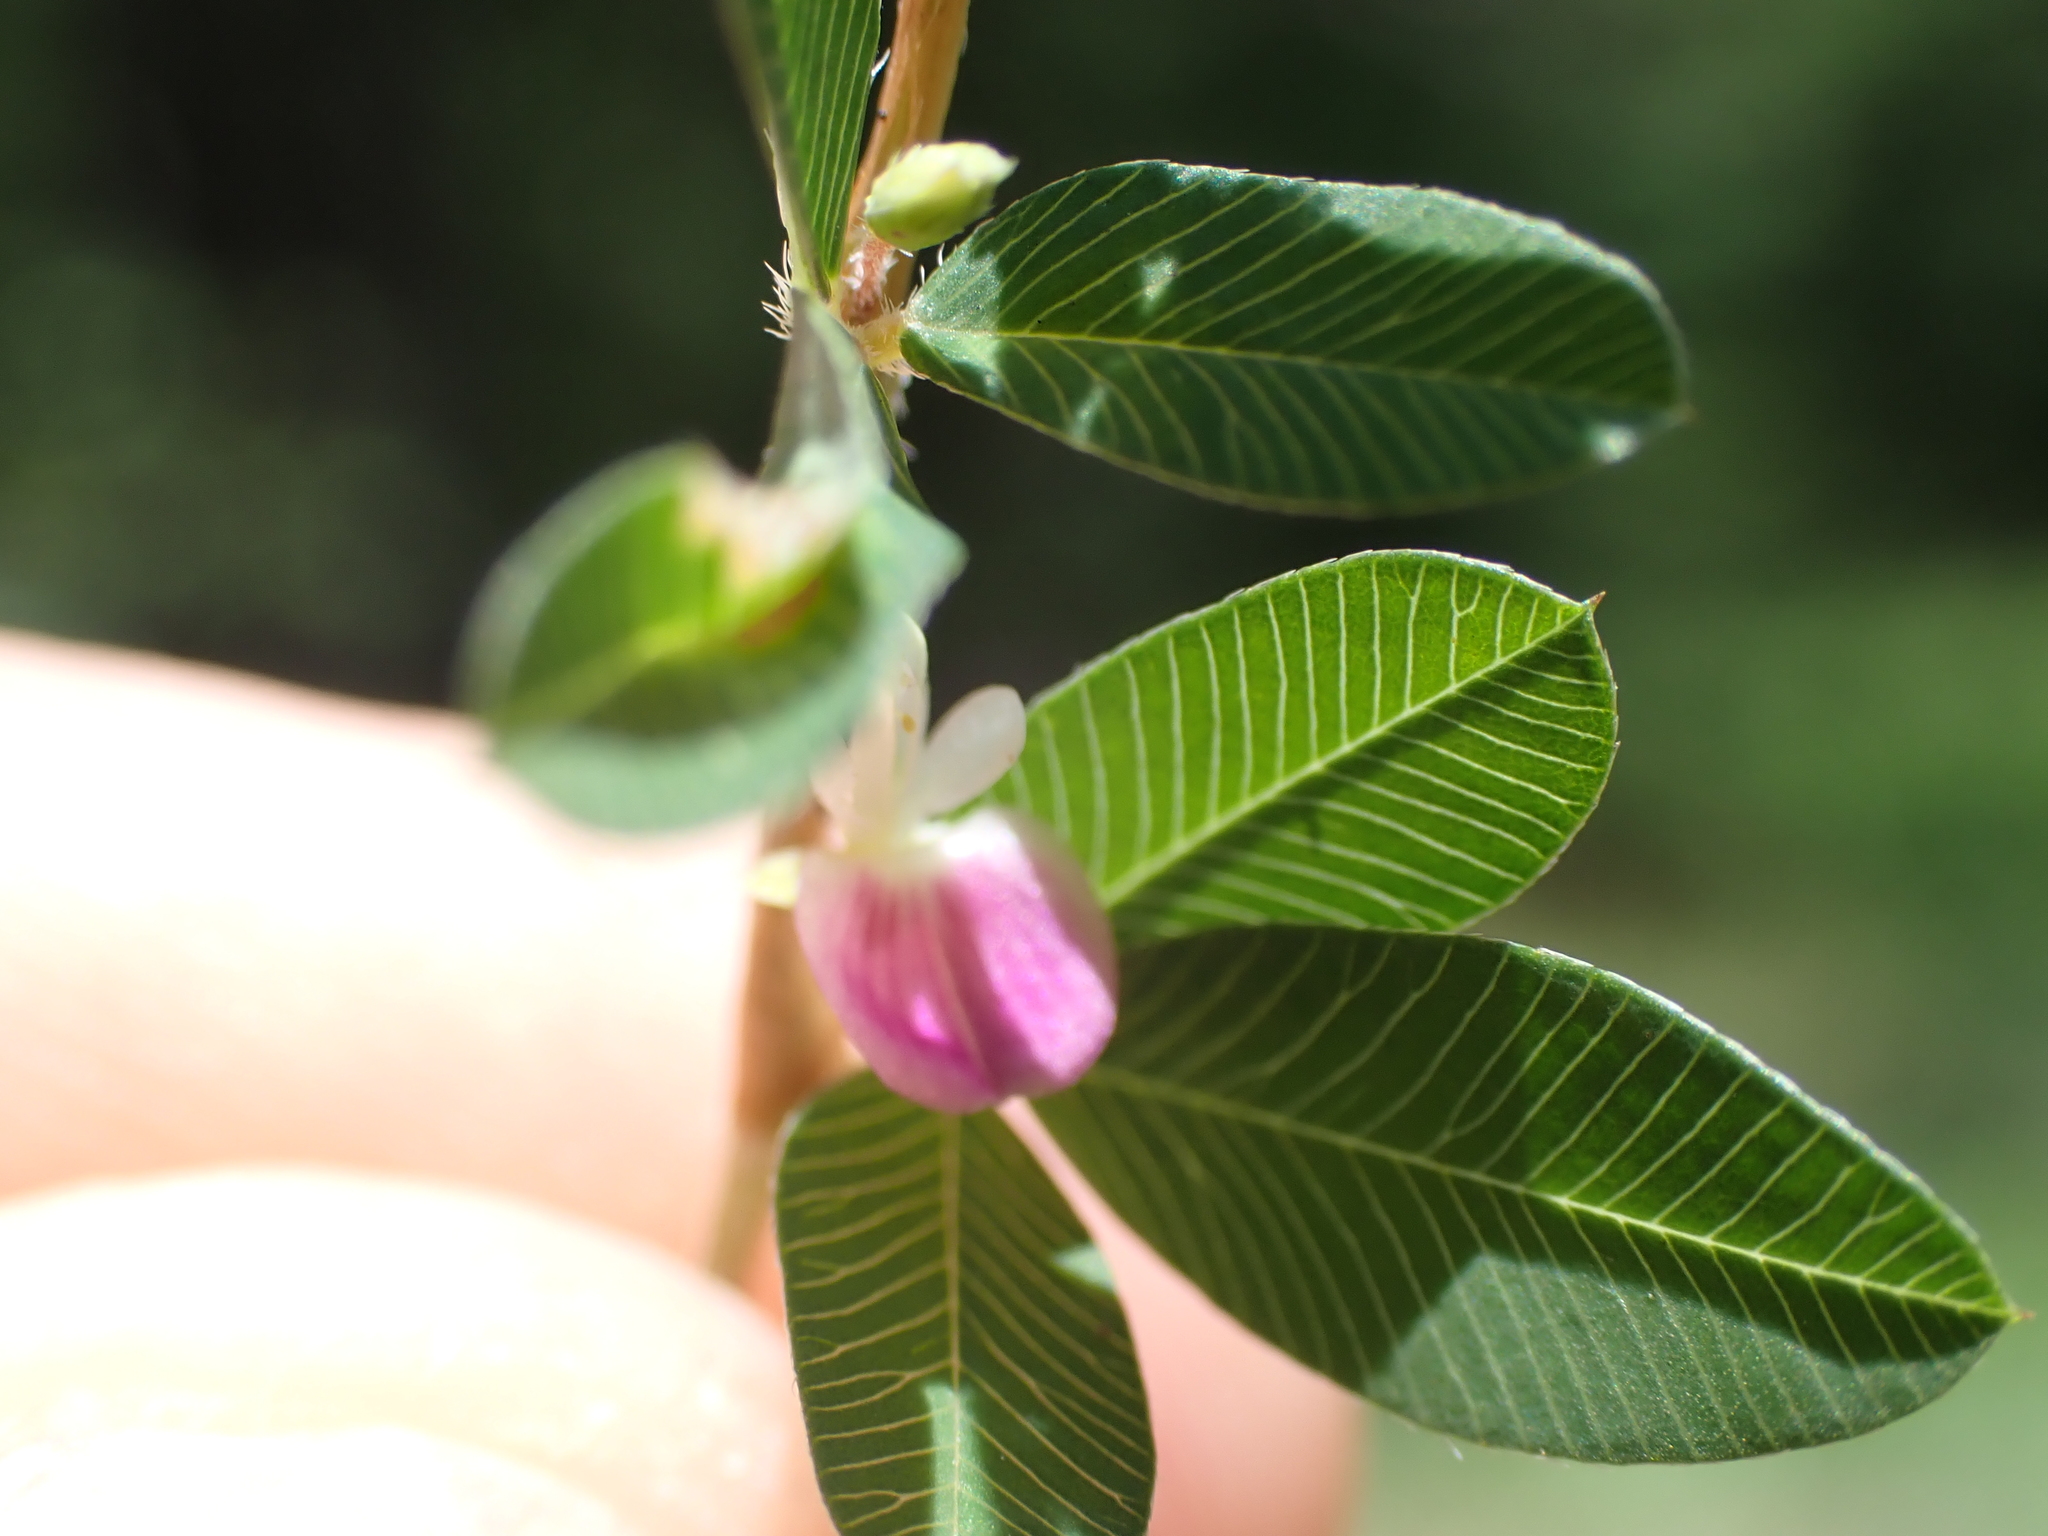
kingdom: Plantae
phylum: Tracheophyta
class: Magnoliopsida
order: Fabales
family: Fabaceae
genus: Kummerowia
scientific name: Kummerowia striata
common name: Japanese clover
